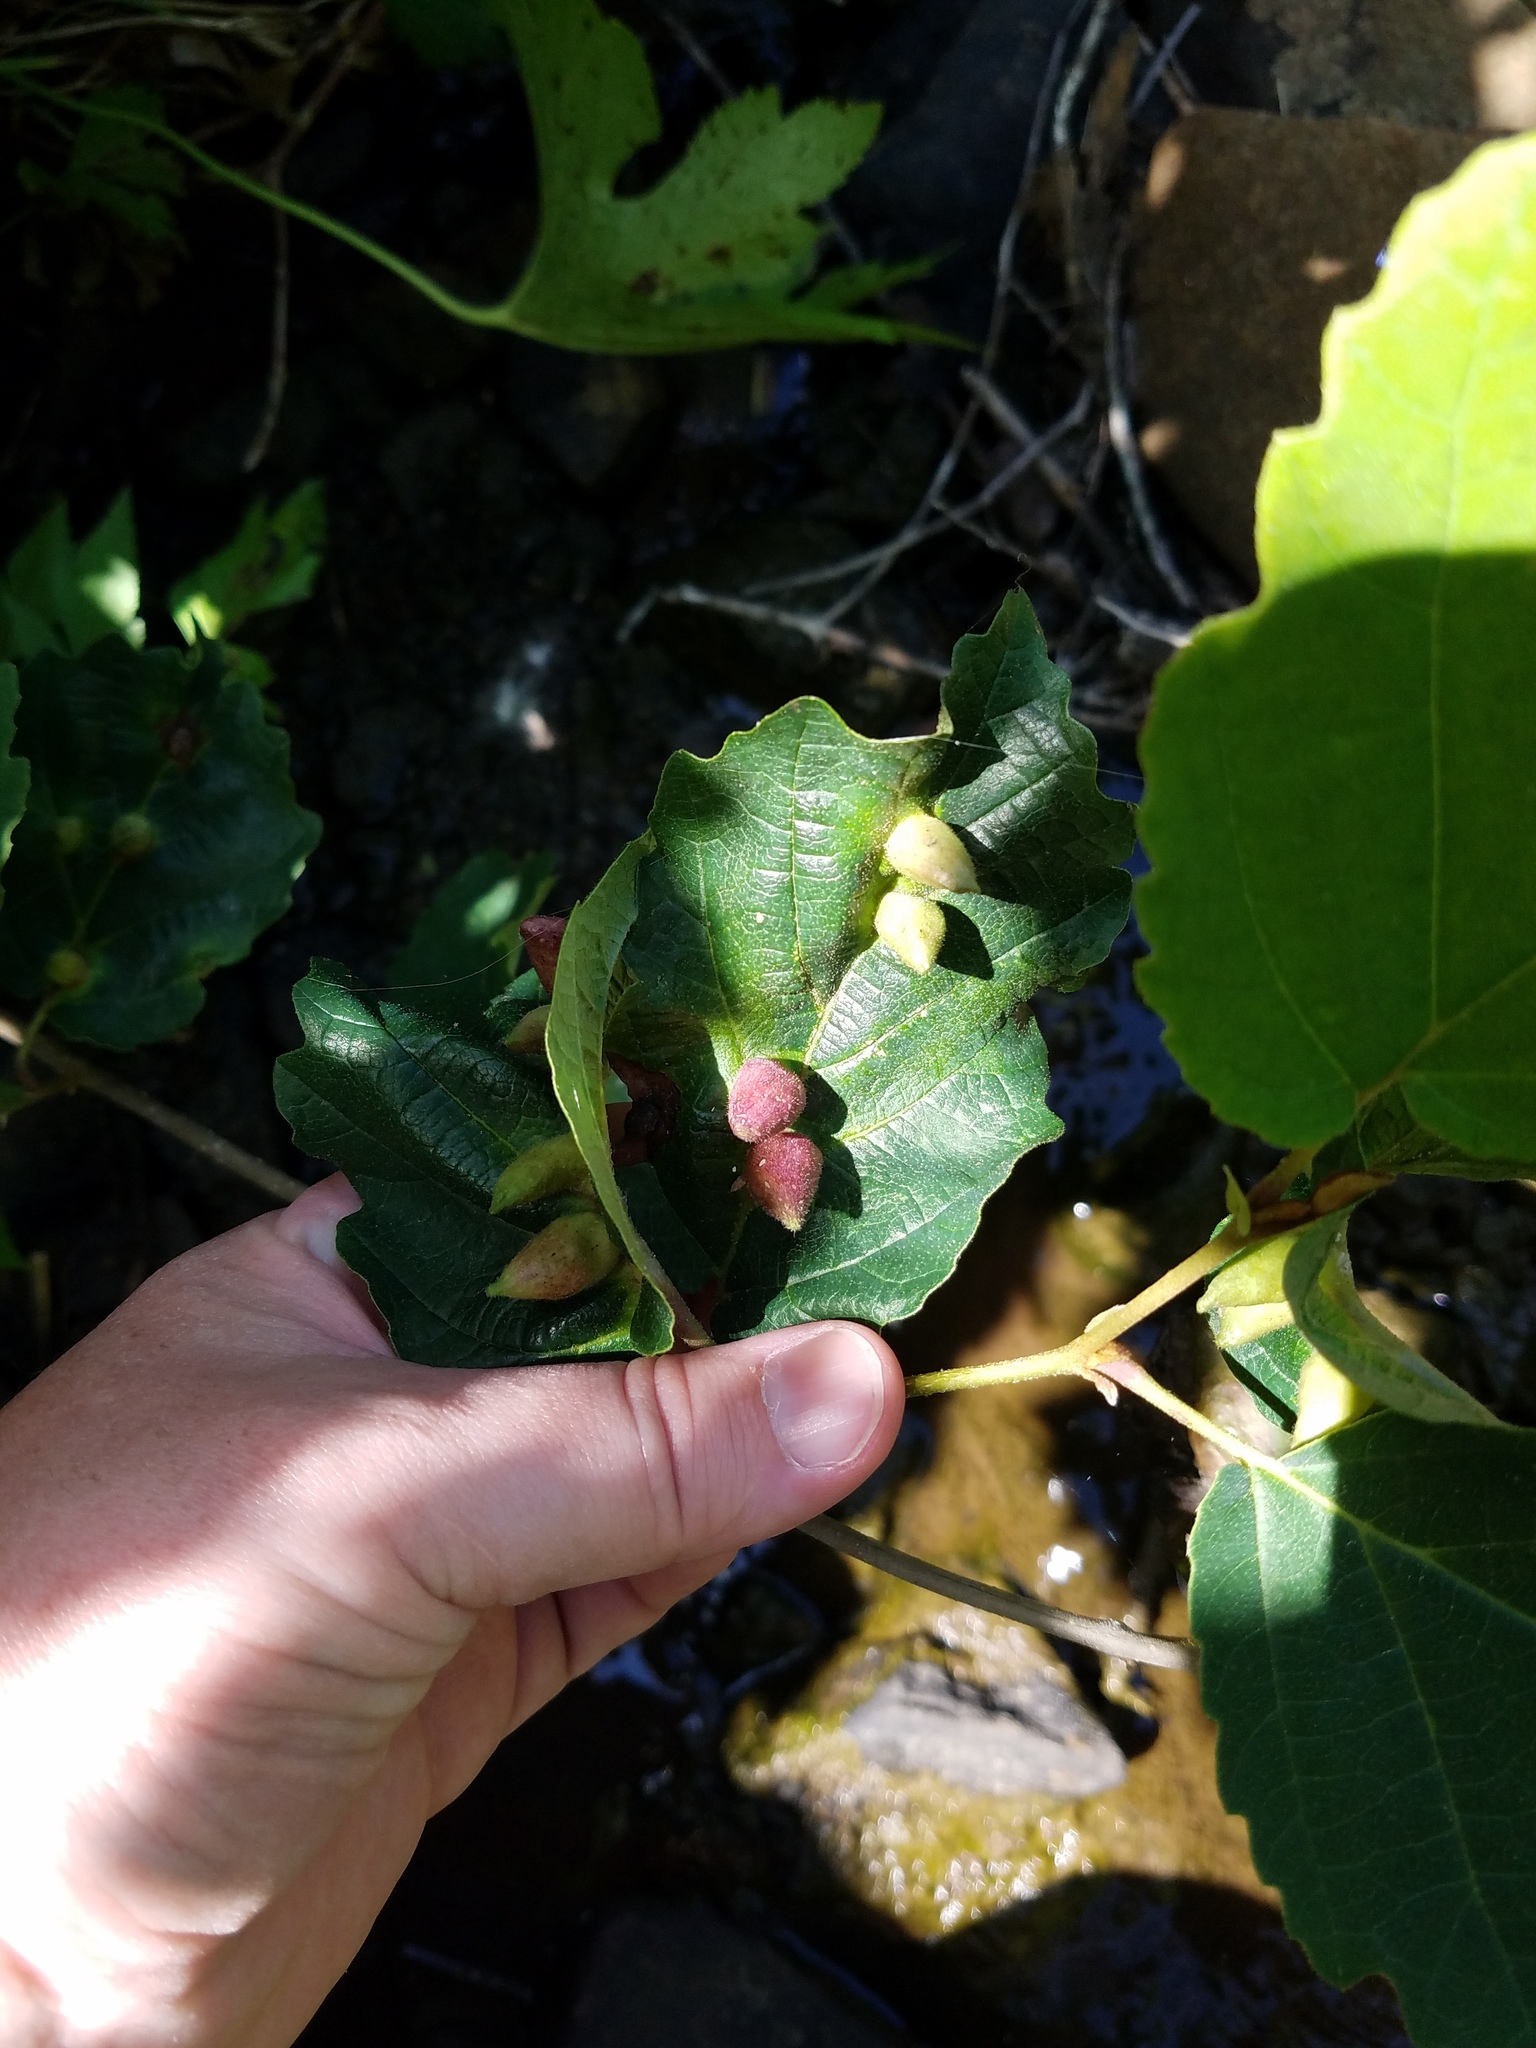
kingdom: Animalia
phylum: Arthropoda
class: Insecta
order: Hemiptera
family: Aphididae
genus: Hormaphis
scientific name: Hormaphis hamamelidis
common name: Witch-hazel cone gall aphid
